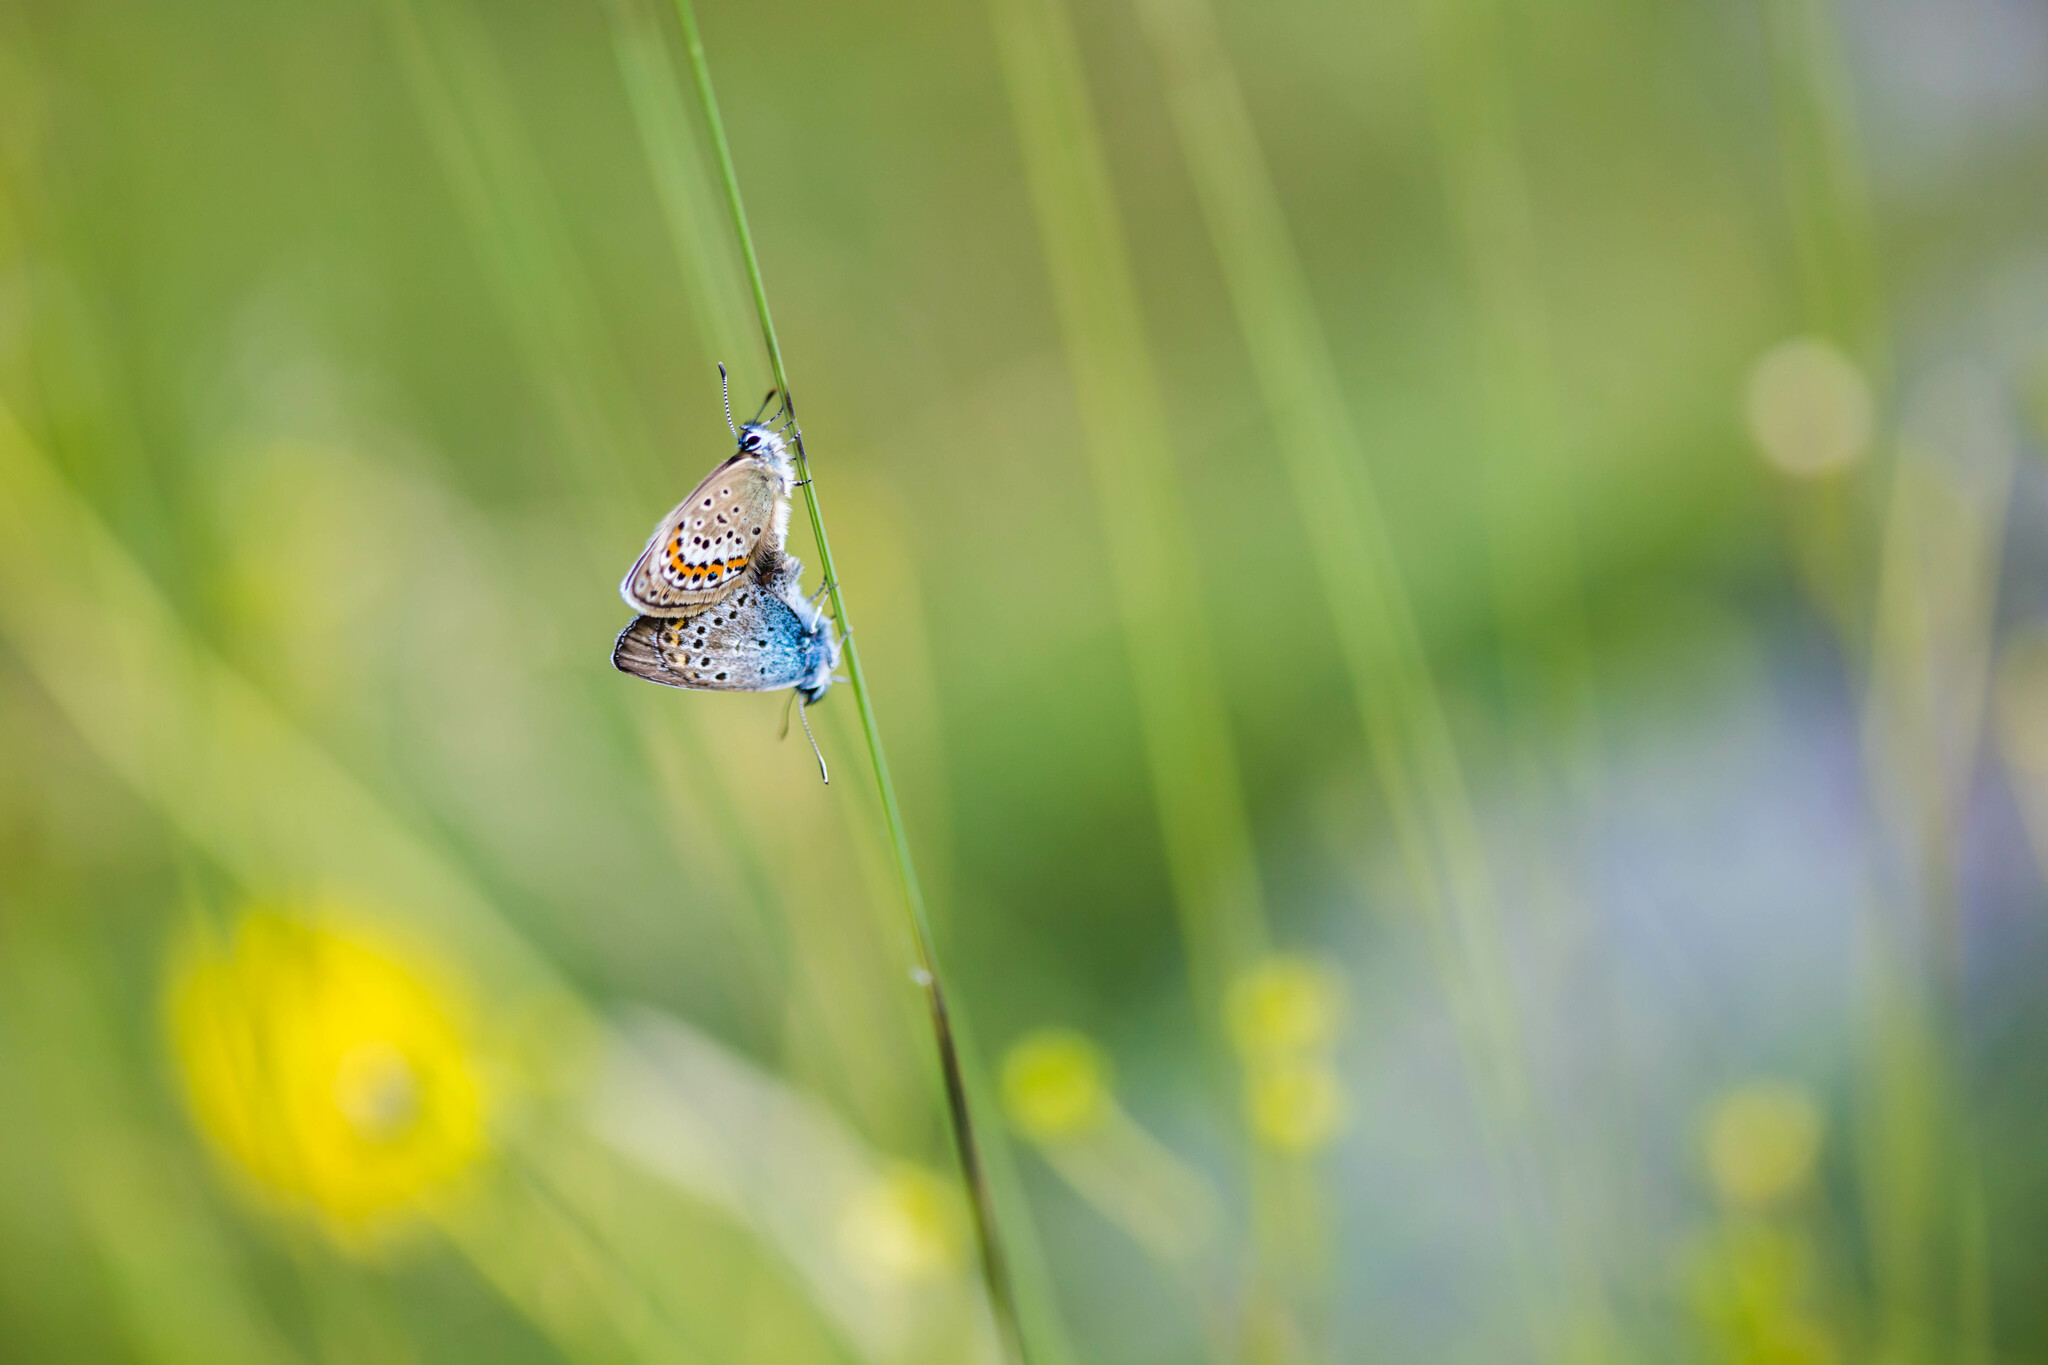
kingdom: Animalia
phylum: Arthropoda
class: Insecta
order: Lepidoptera
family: Lycaenidae
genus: Plebejus
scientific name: Plebejus argus
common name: Silver-studded blue
